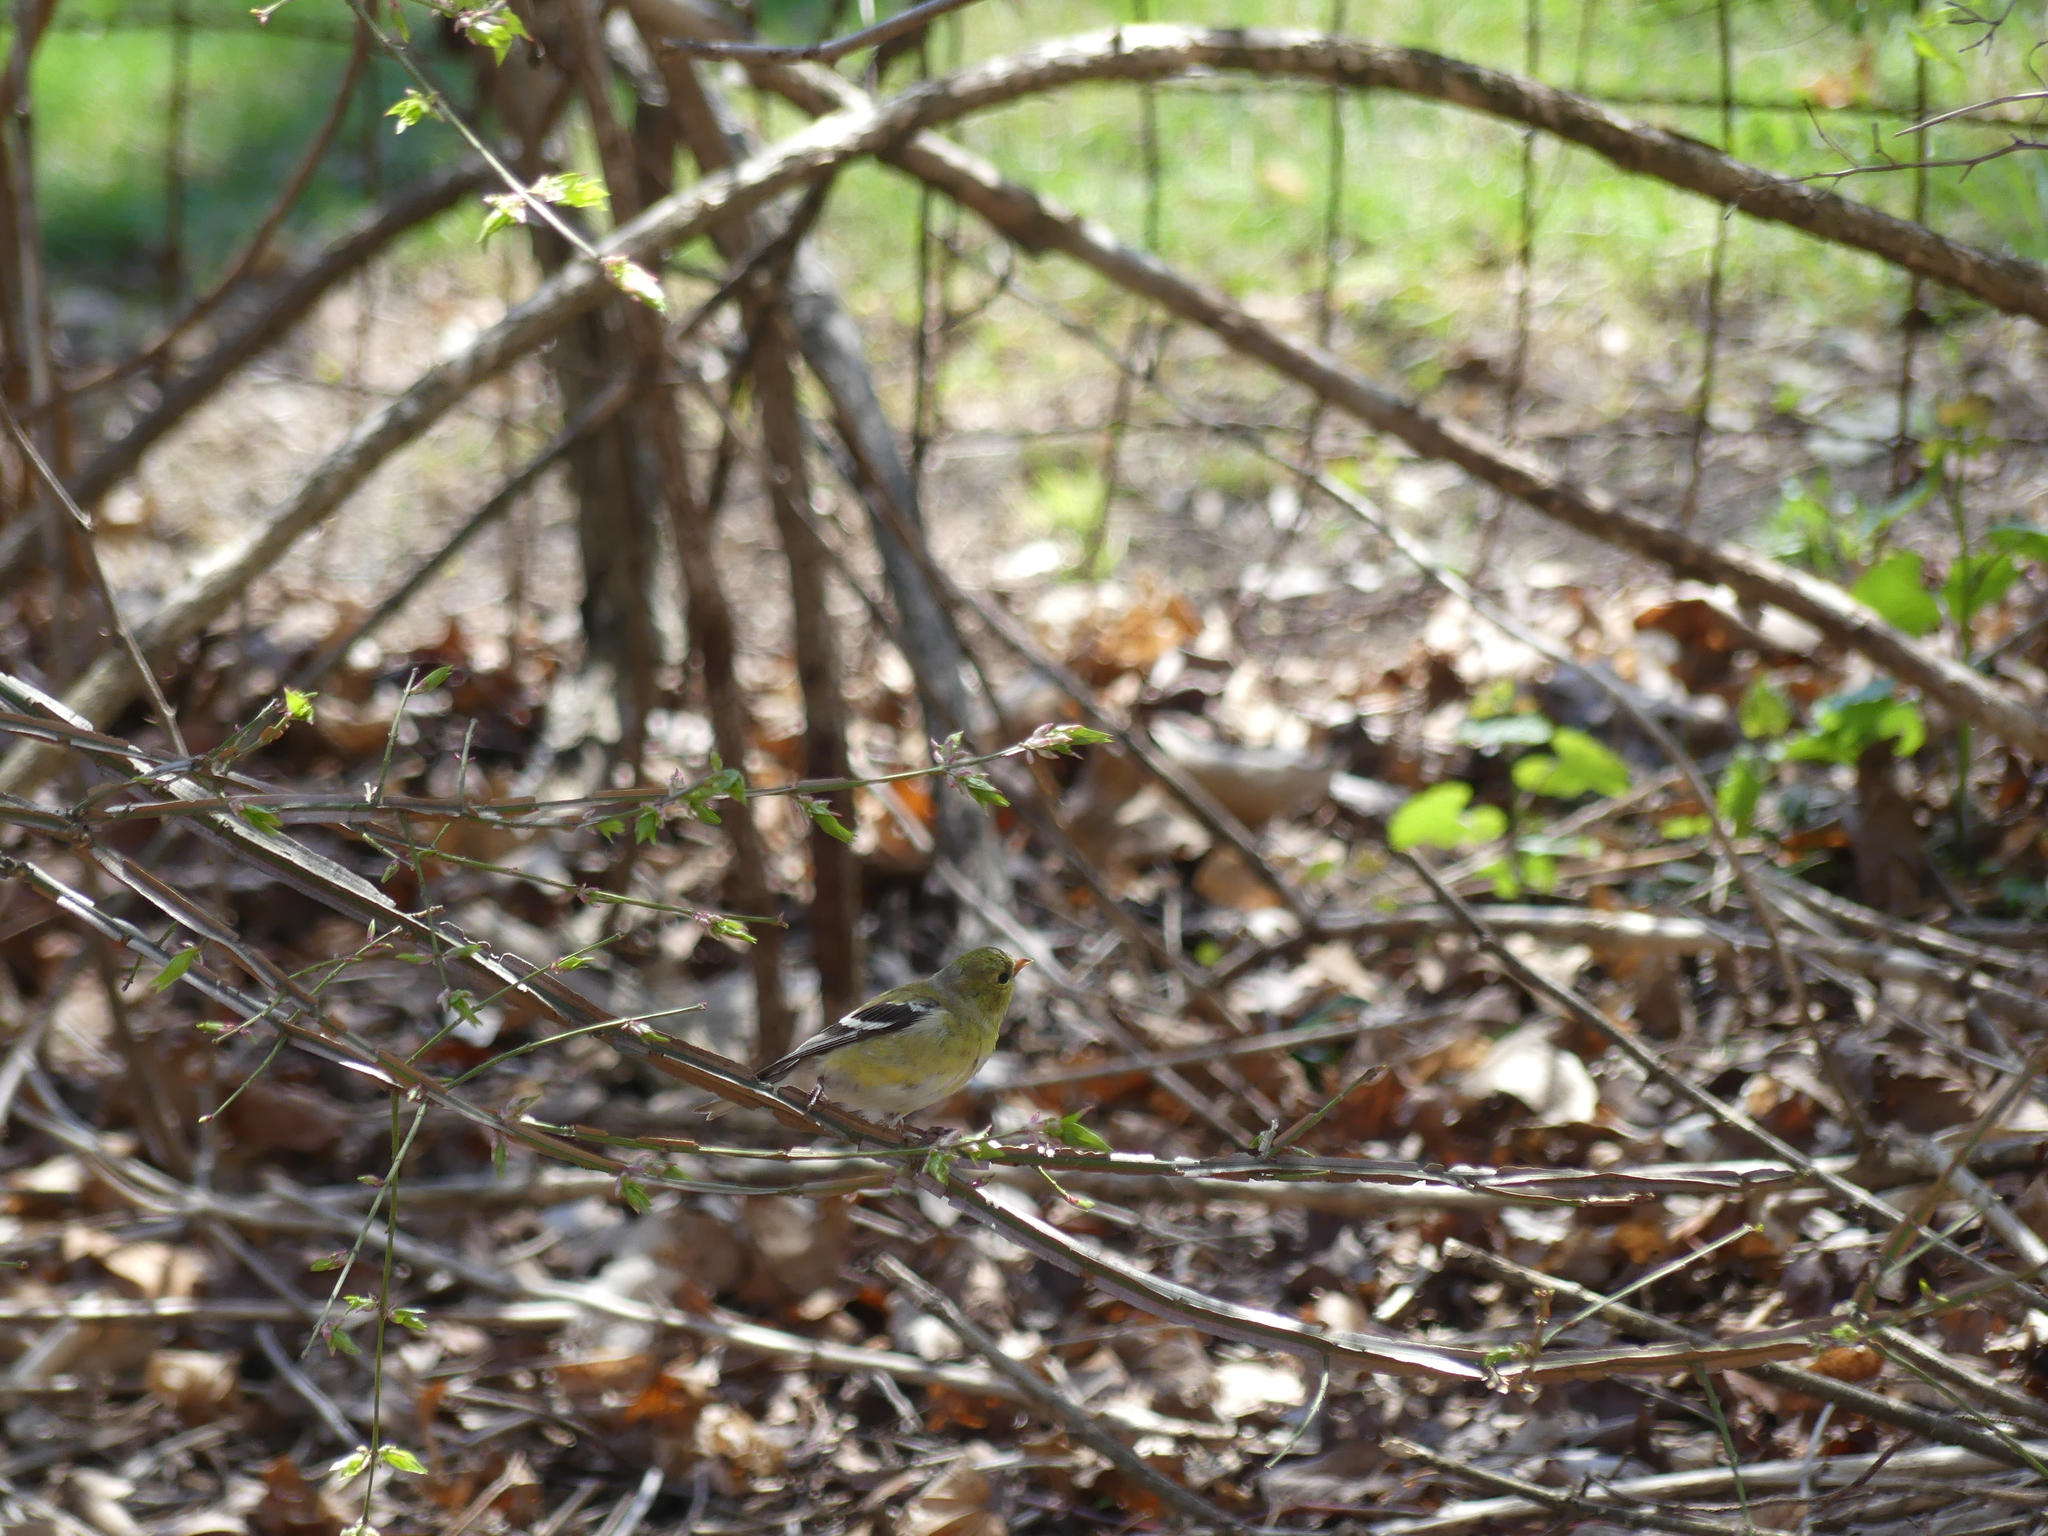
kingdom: Animalia
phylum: Chordata
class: Aves
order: Passeriformes
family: Fringillidae
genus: Spinus
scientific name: Spinus tristis
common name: American goldfinch
